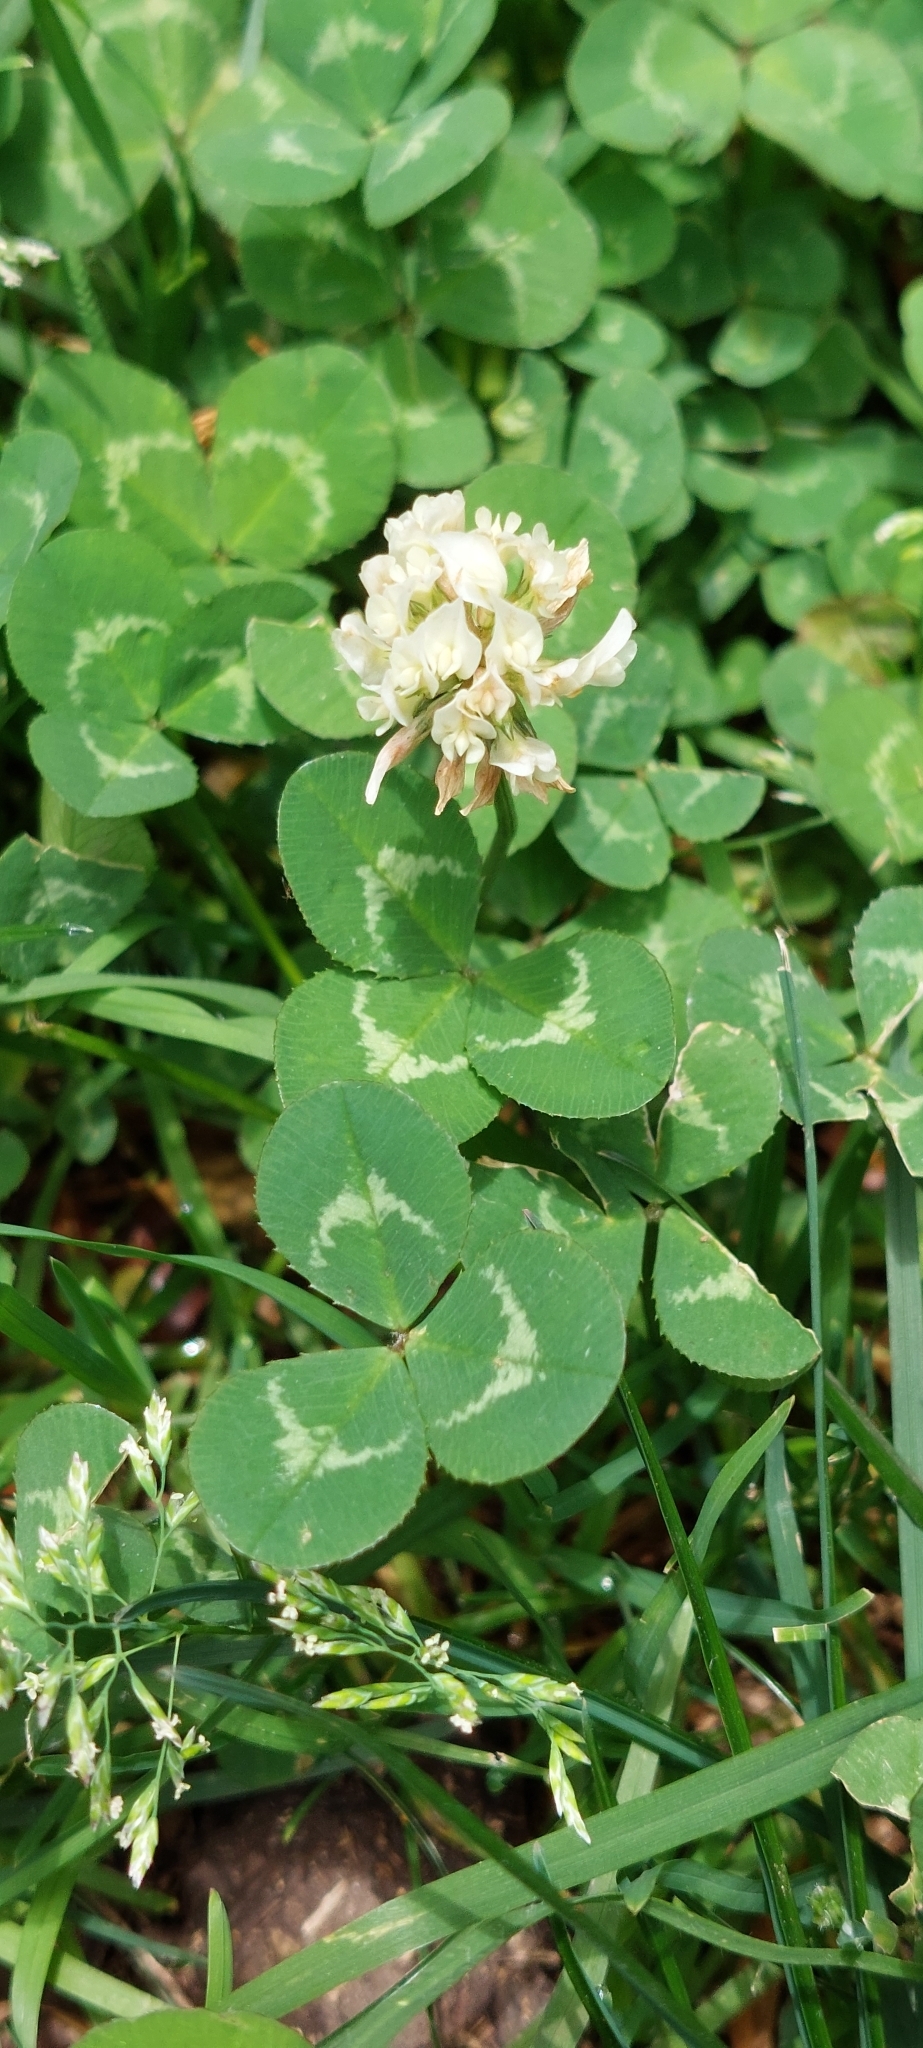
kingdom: Plantae
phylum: Tracheophyta
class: Magnoliopsida
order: Fabales
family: Fabaceae
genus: Trifolium
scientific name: Trifolium repens
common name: White clover
